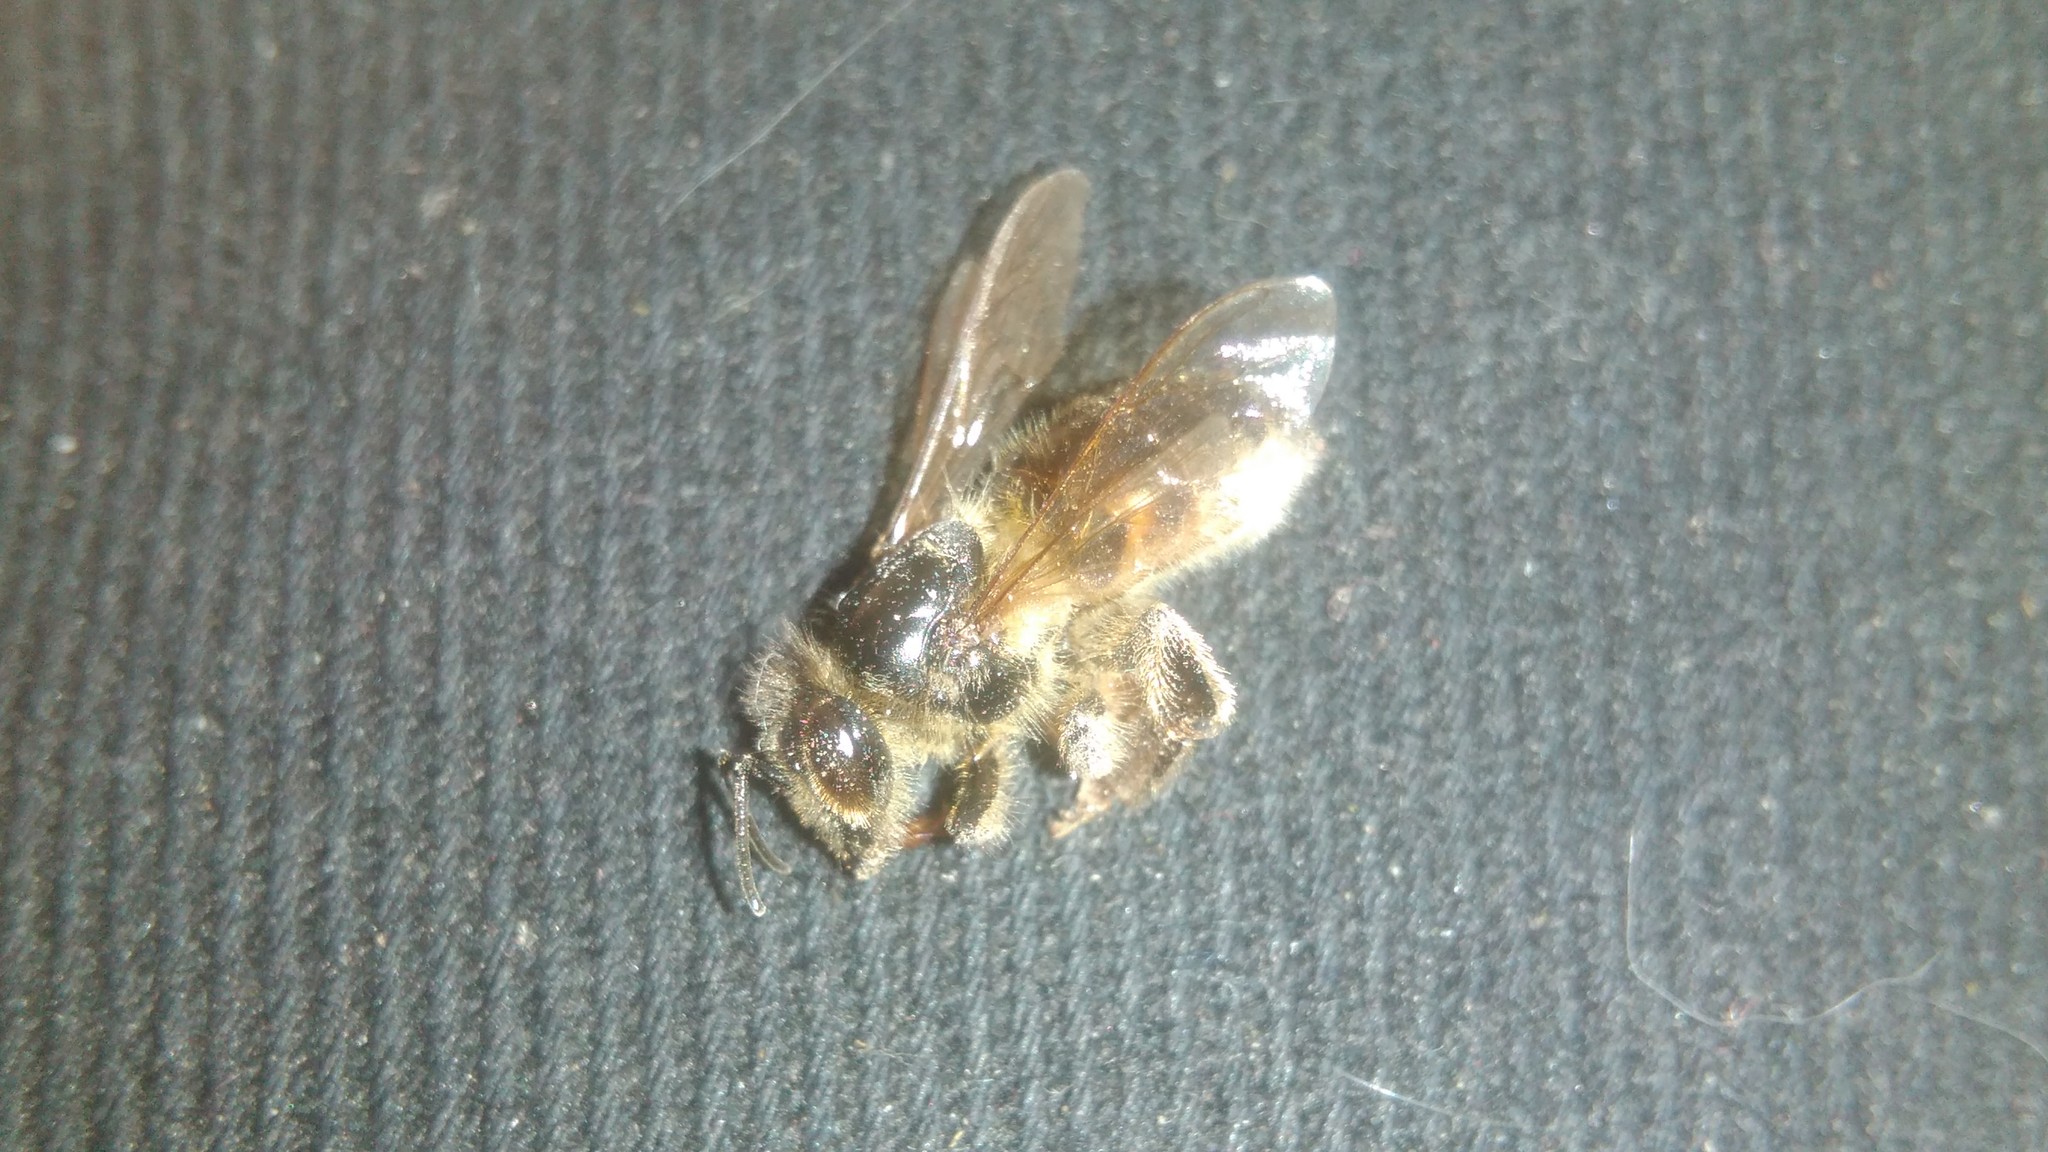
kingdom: Animalia
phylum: Arthropoda
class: Insecta
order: Hymenoptera
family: Apidae
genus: Apis
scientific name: Apis mellifera
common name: Honey bee
